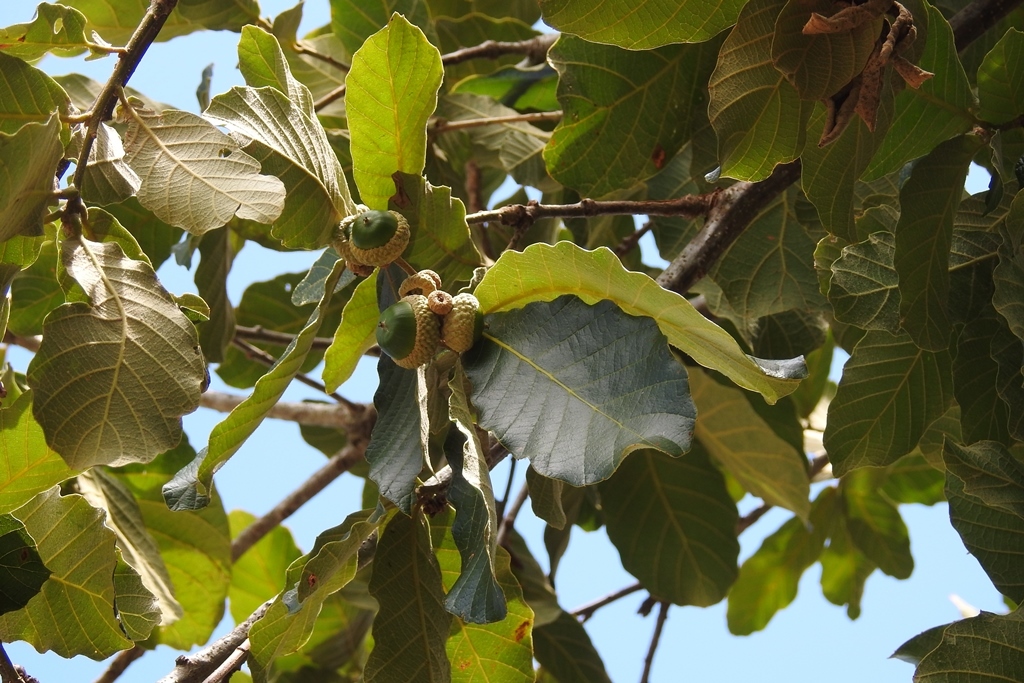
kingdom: Plantae
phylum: Tracheophyta
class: Magnoliopsida
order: Fagales
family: Fagaceae
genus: Quercus
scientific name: Quercus purulhana
